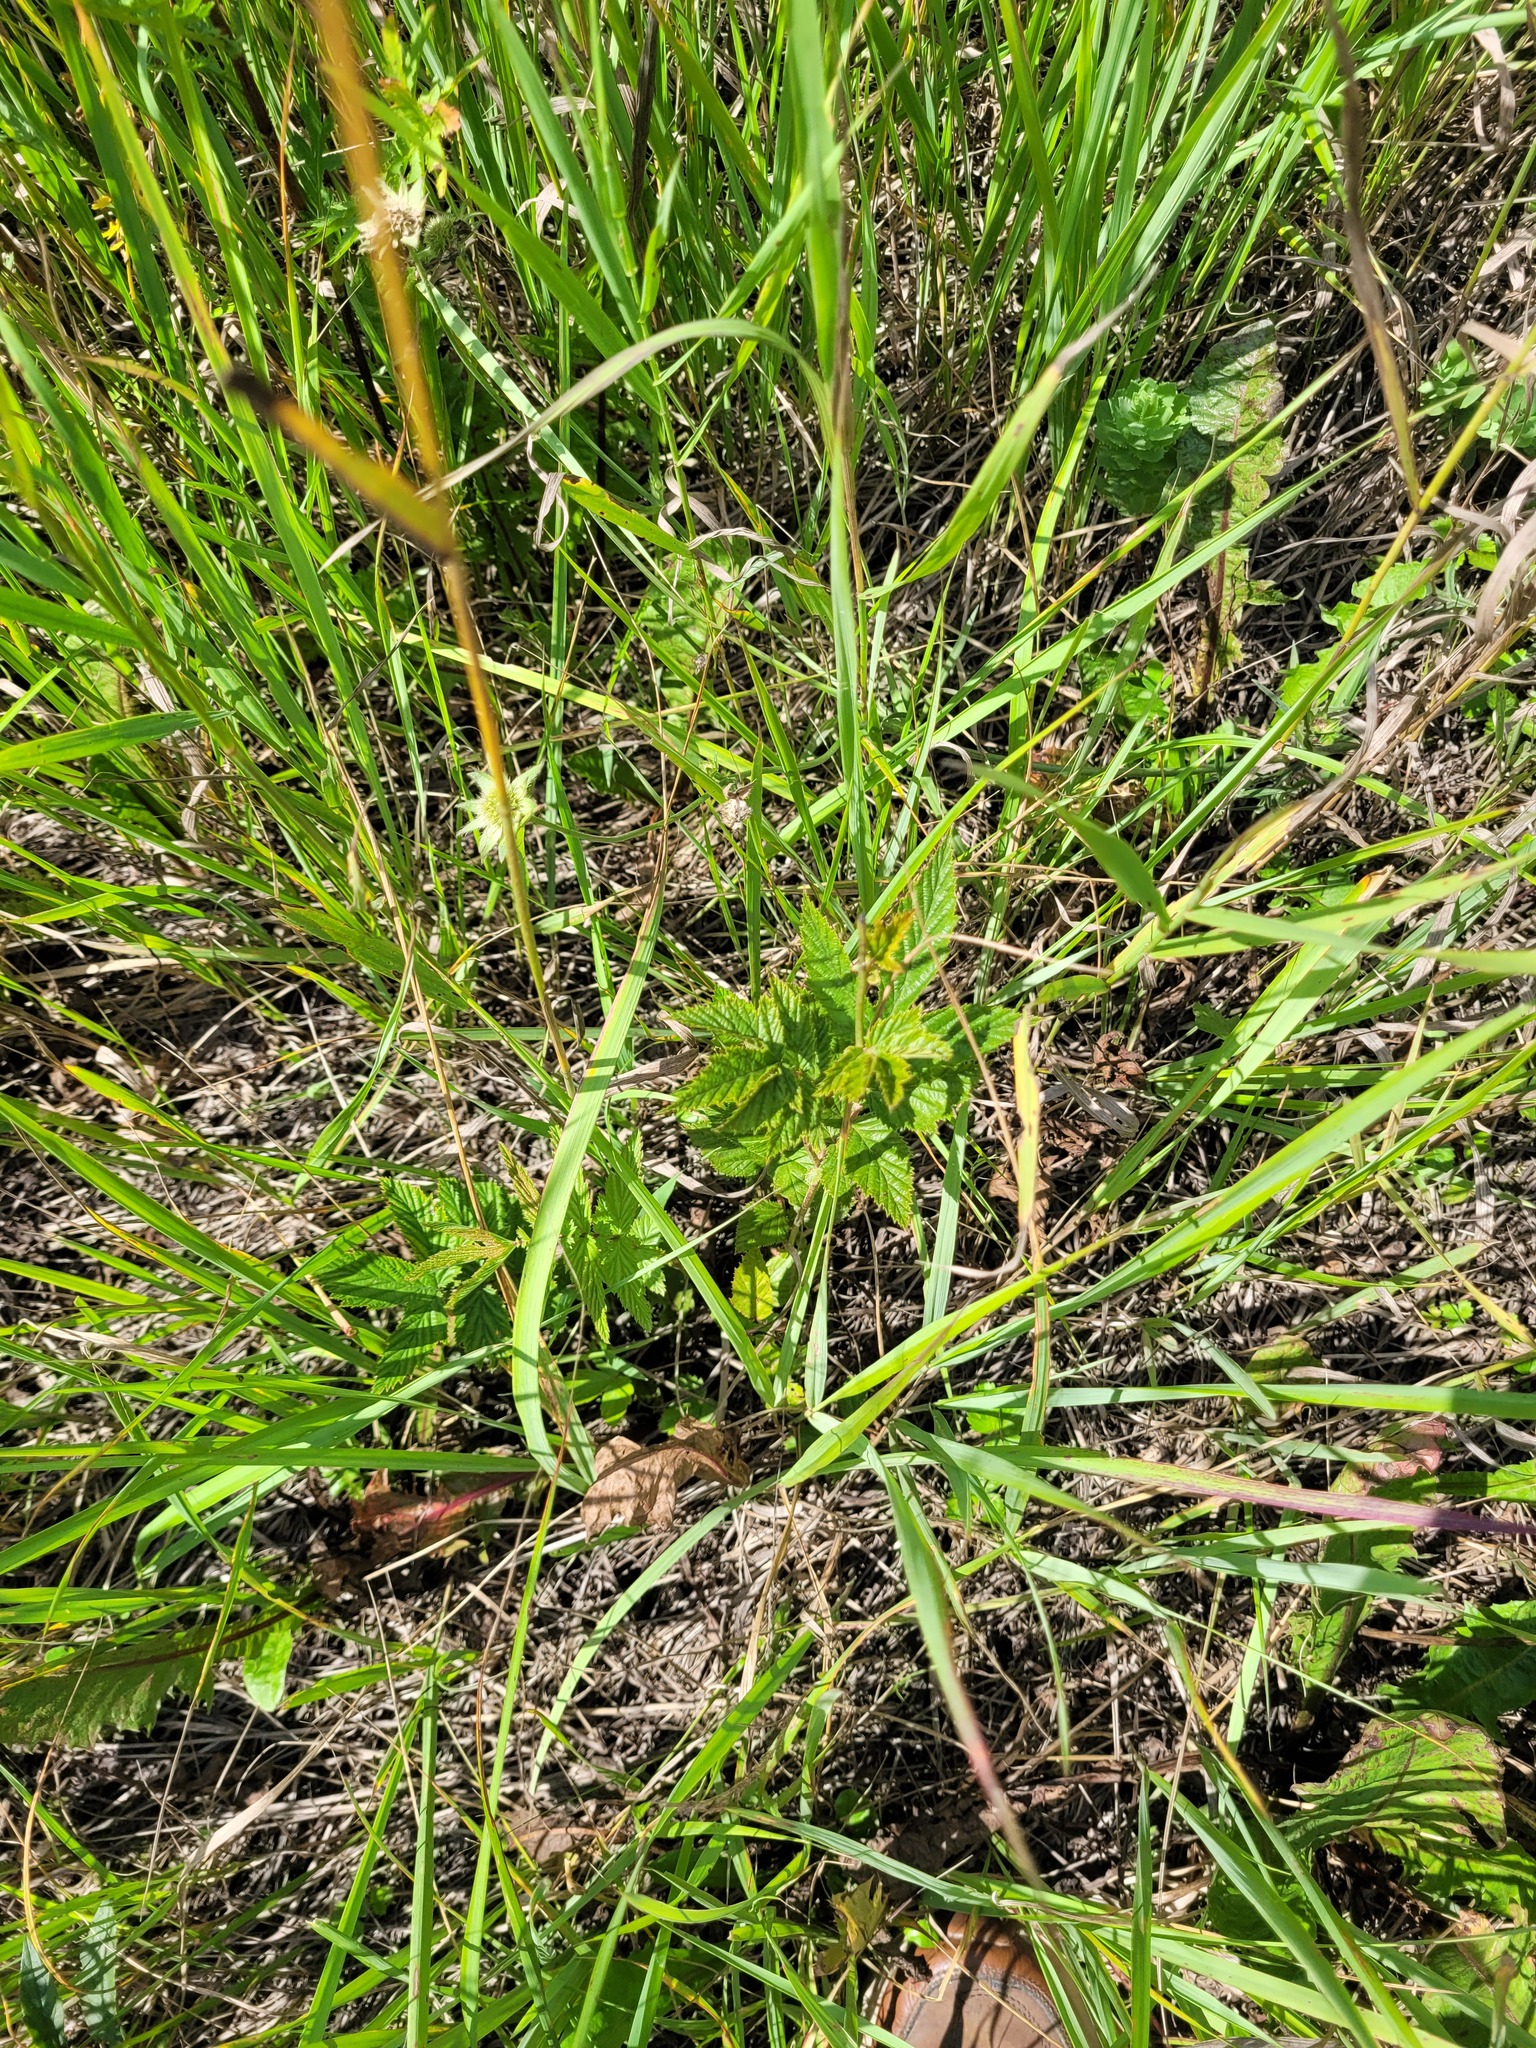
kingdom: Plantae
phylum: Tracheophyta
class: Magnoliopsida
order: Rosales
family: Rosaceae
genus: Filipendula
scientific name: Filipendula ulmaria
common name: Meadowsweet
